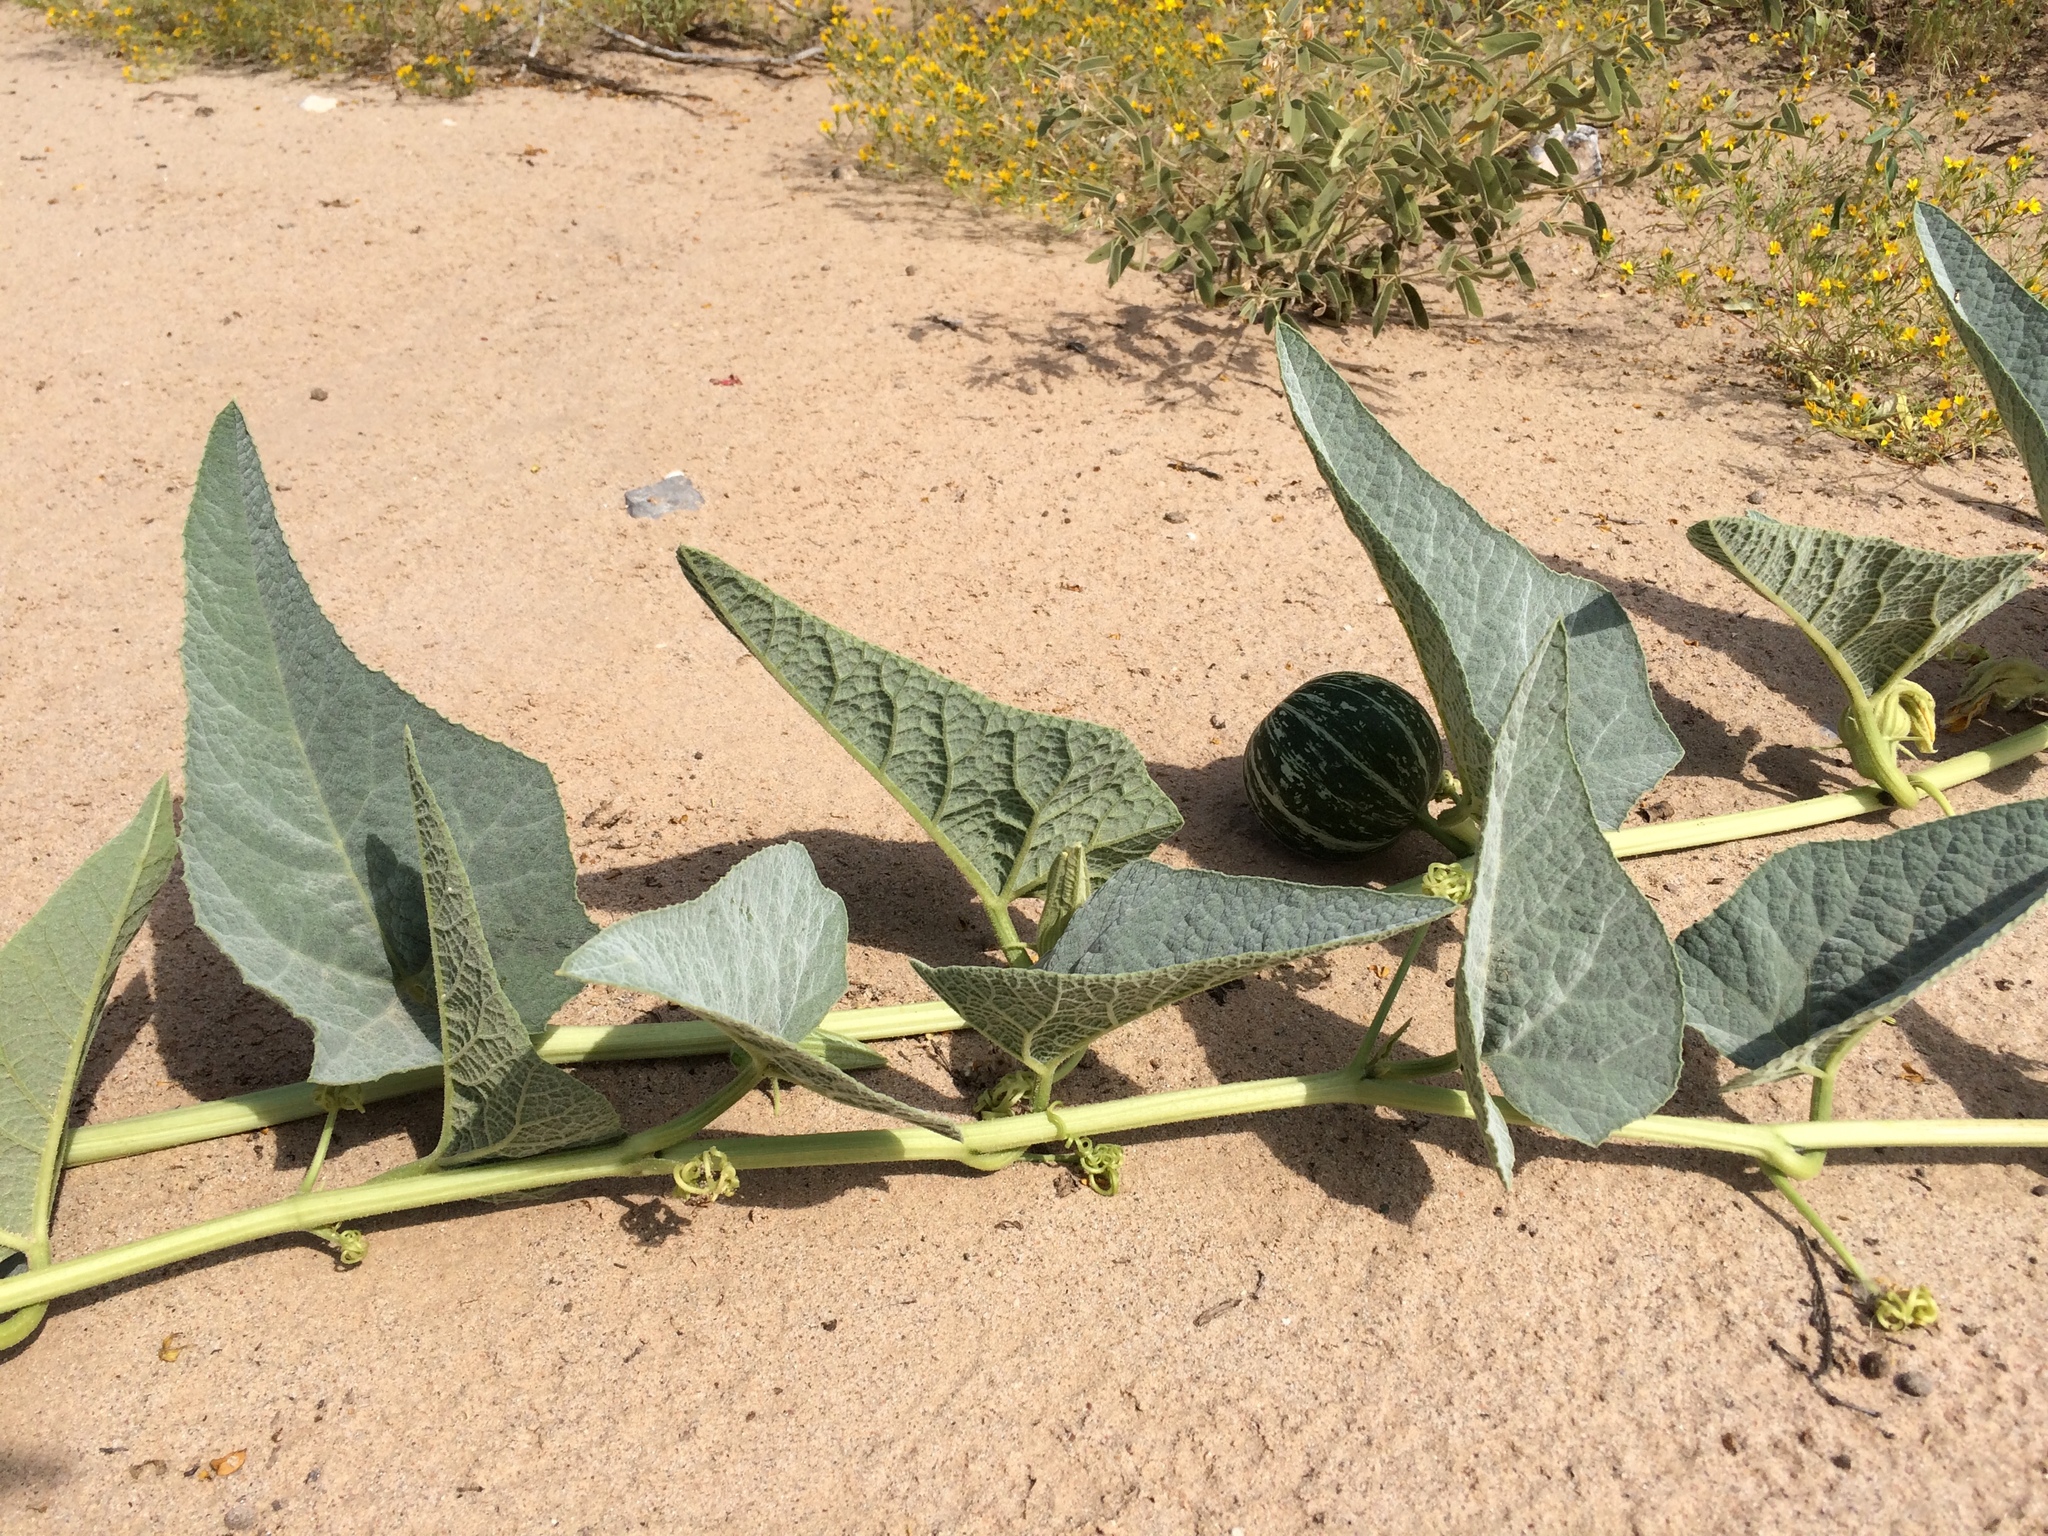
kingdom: Plantae
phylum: Tracheophyta
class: Magnoliopsida
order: Cucurbitales
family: Cucurbitaceae
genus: Cucurbita
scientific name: Cucurbita foetidissima
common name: Buffalo gourd
